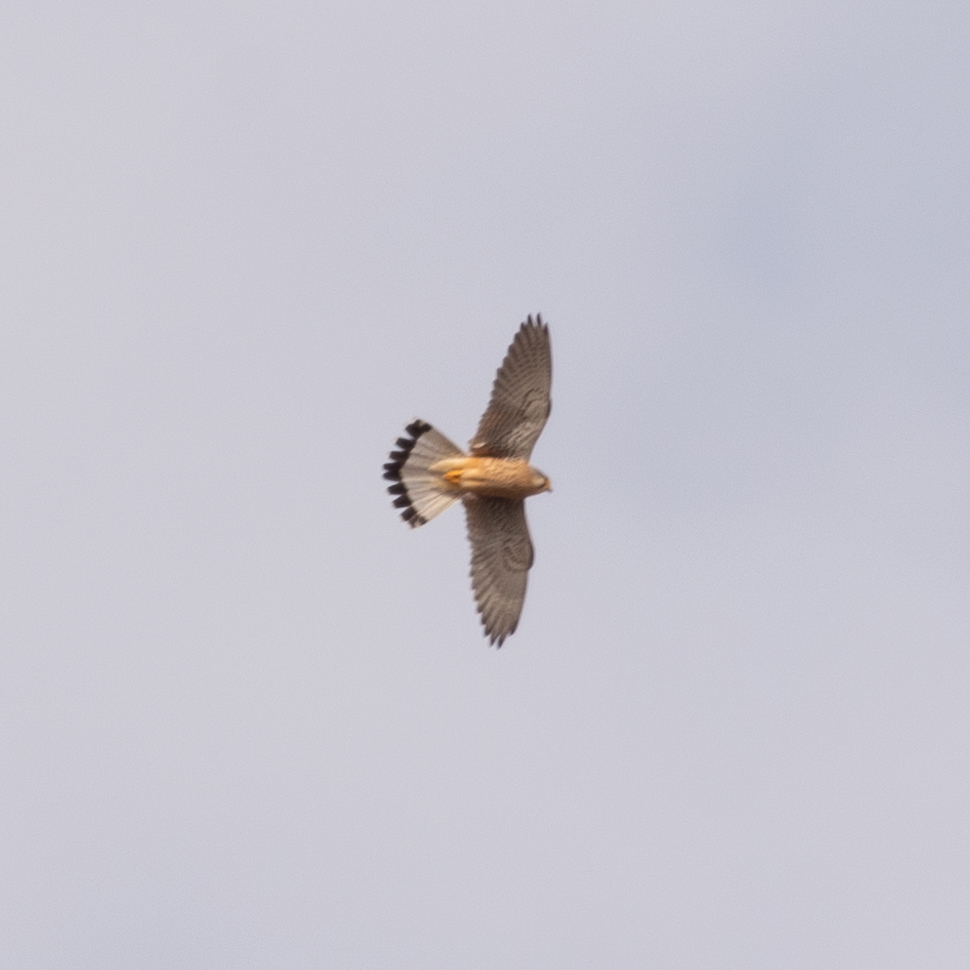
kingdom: Animalia
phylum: Chordata
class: Aves
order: Falconiformes
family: Falconidae
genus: Falco
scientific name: Falco tinnunculus
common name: Common kestrel
